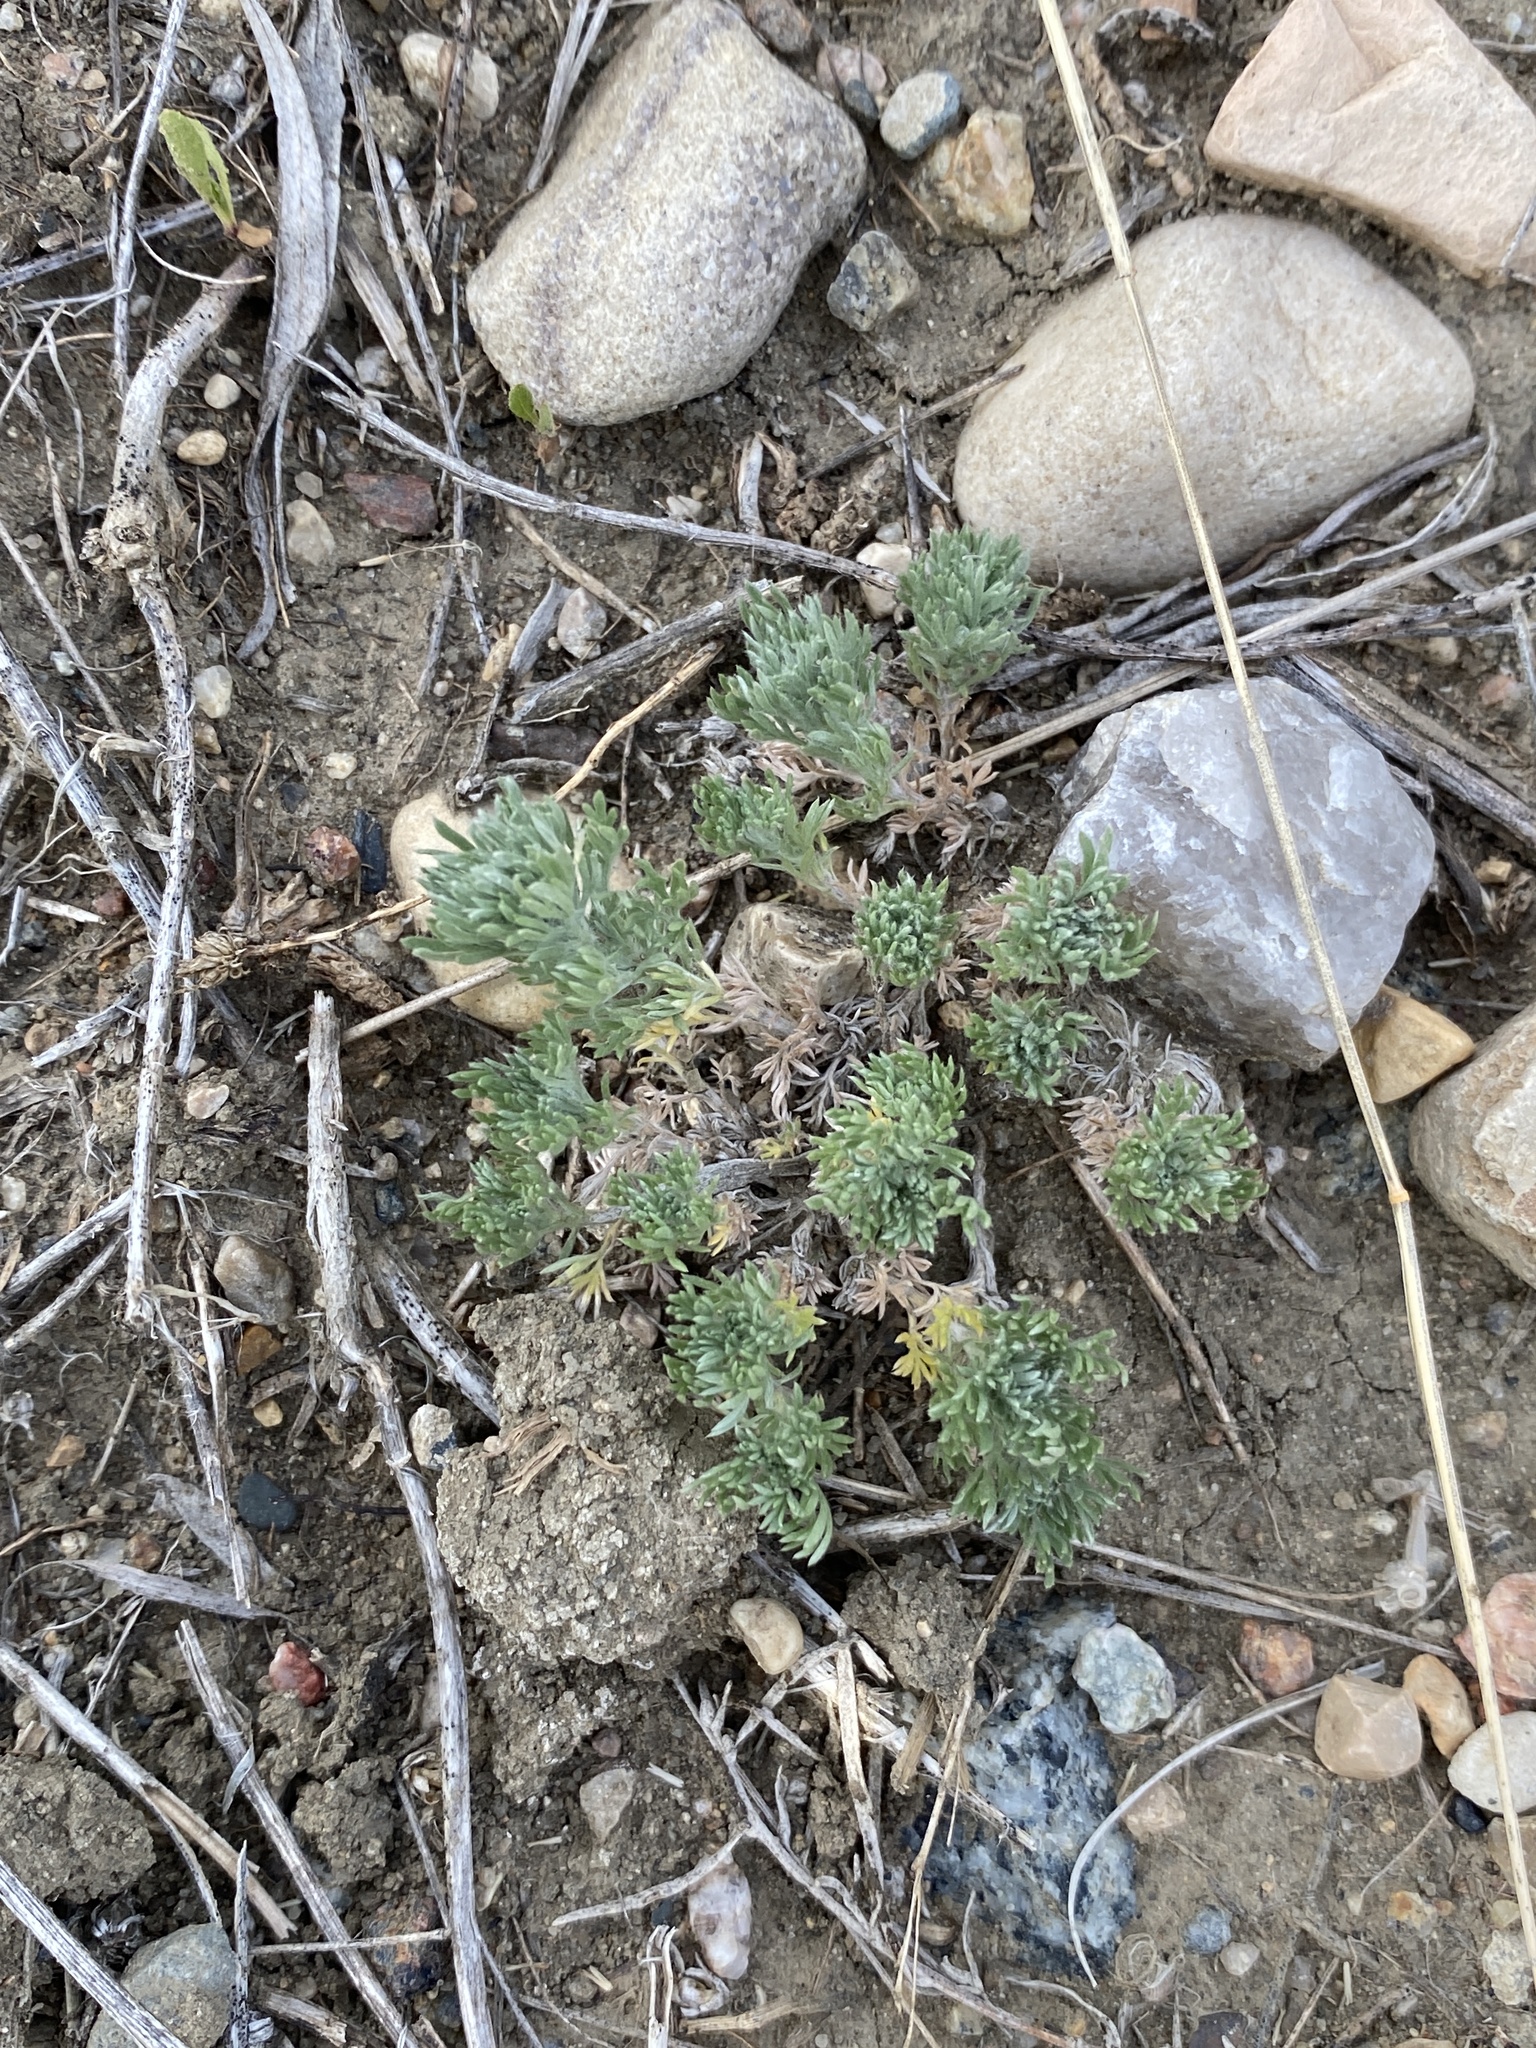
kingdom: Plantae
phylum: Tracheophyta
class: Magnoliopsida
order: Asterales
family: Asteraceae
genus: Artemisia
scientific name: Artemisia frigida
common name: Prairie sagewort
